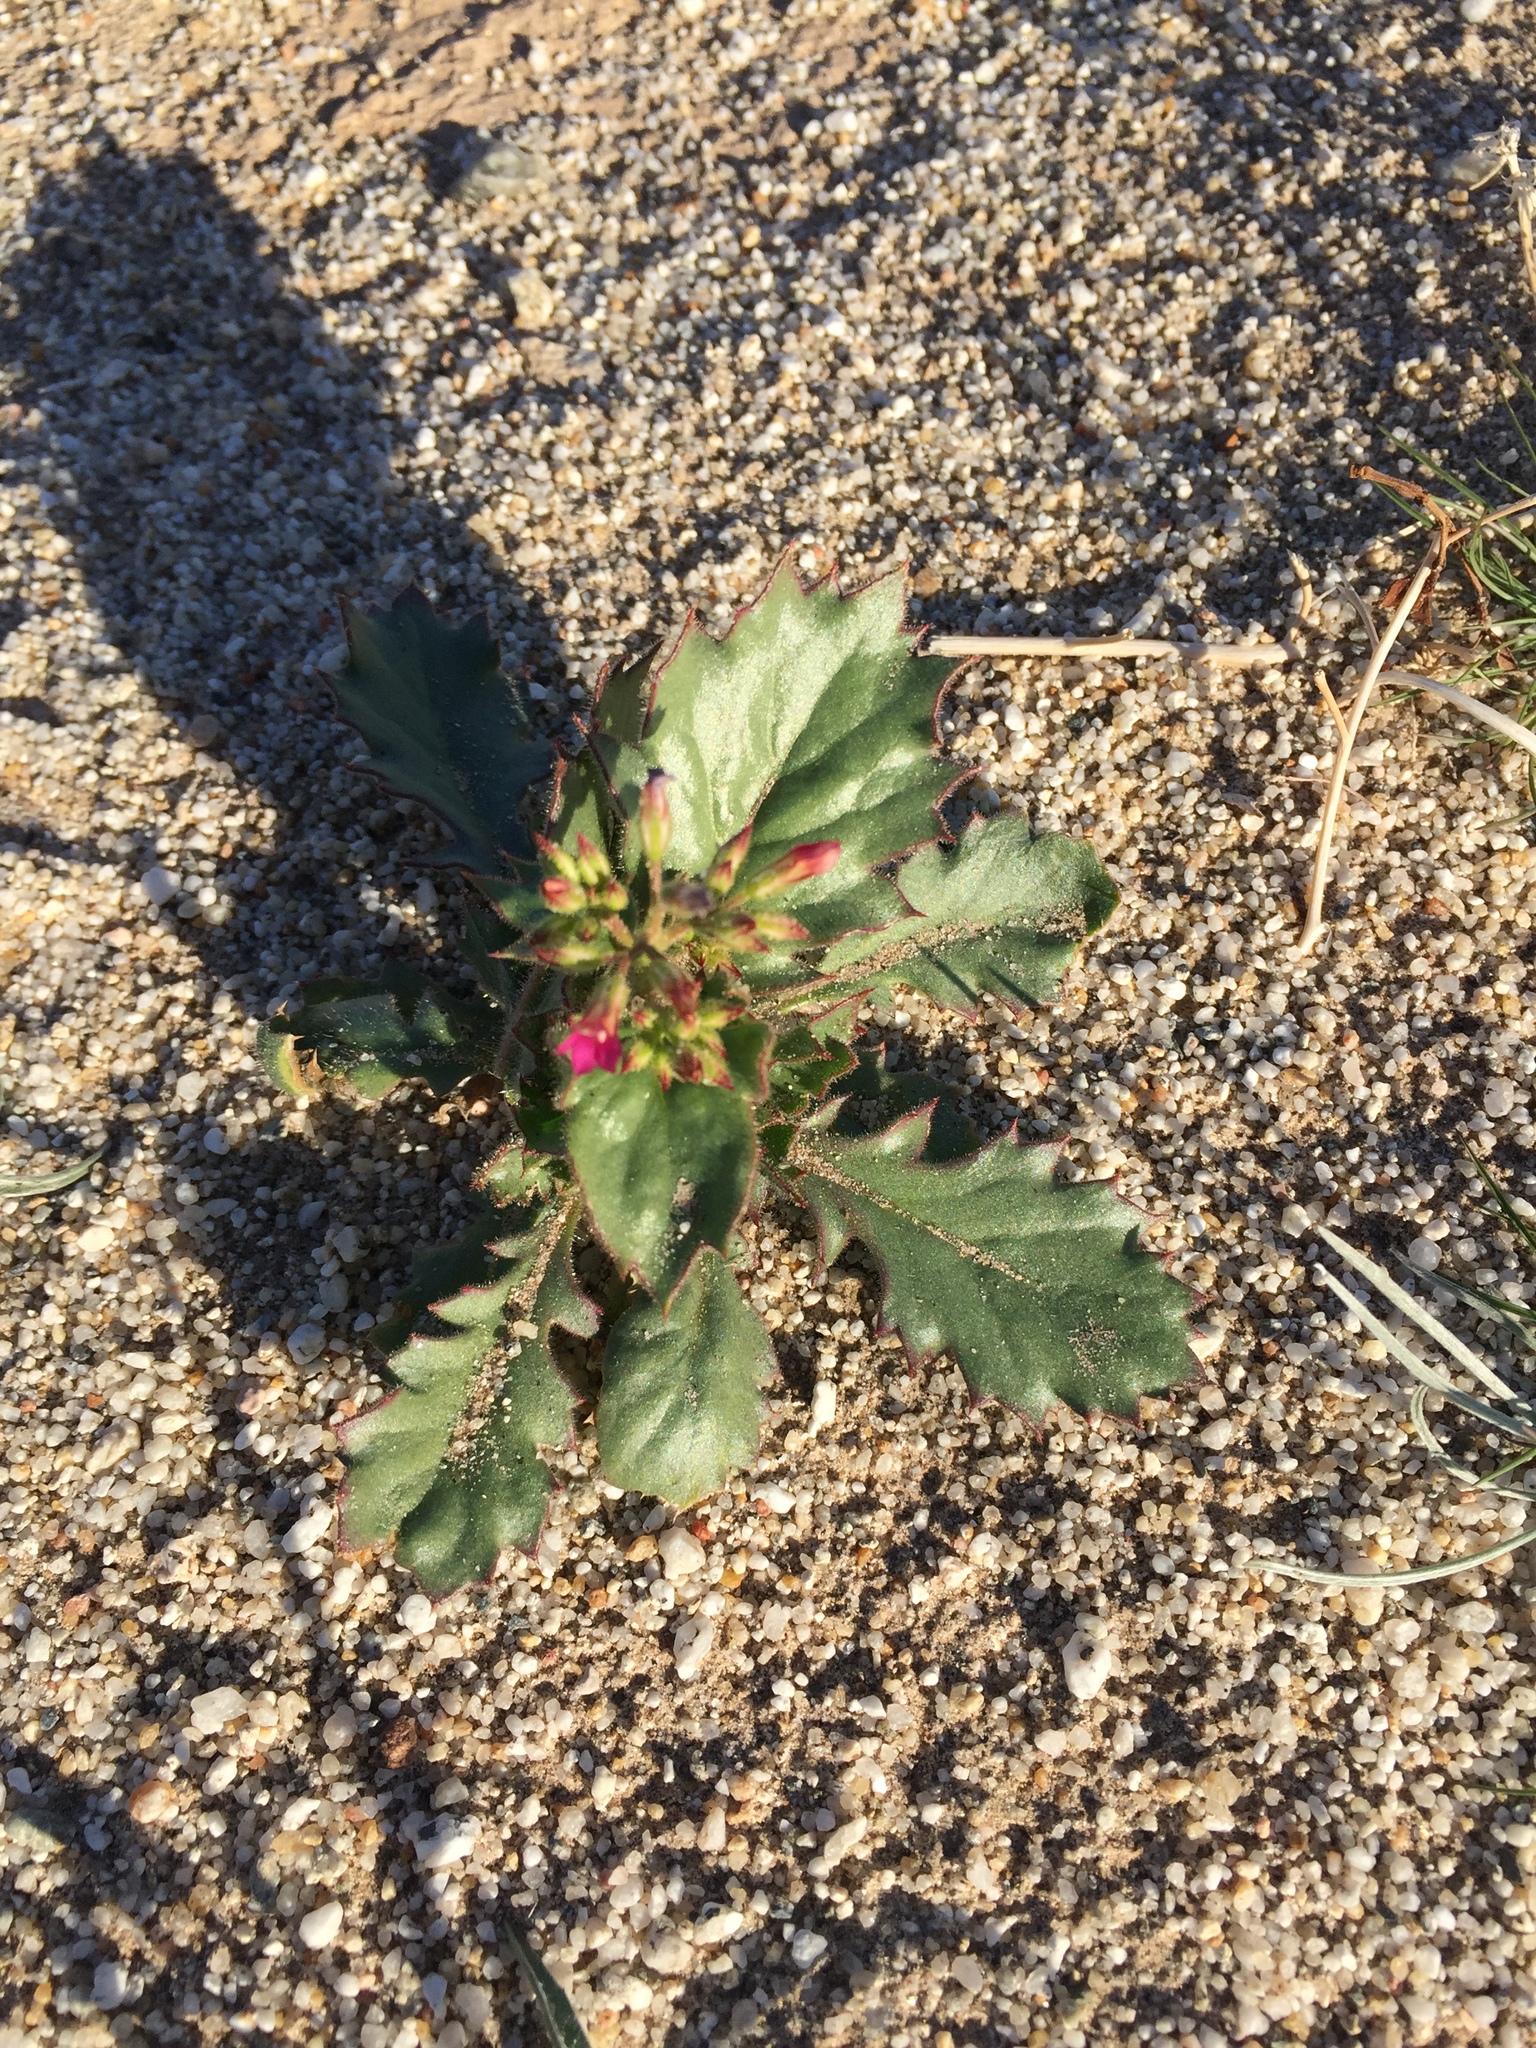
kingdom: Plantae
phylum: Tracheophyta
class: Magnoliopsida
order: Ericales
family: Polemoniaceae
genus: Aliciella
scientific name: Aliciella latifolia
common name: Broad-leaf gilia
